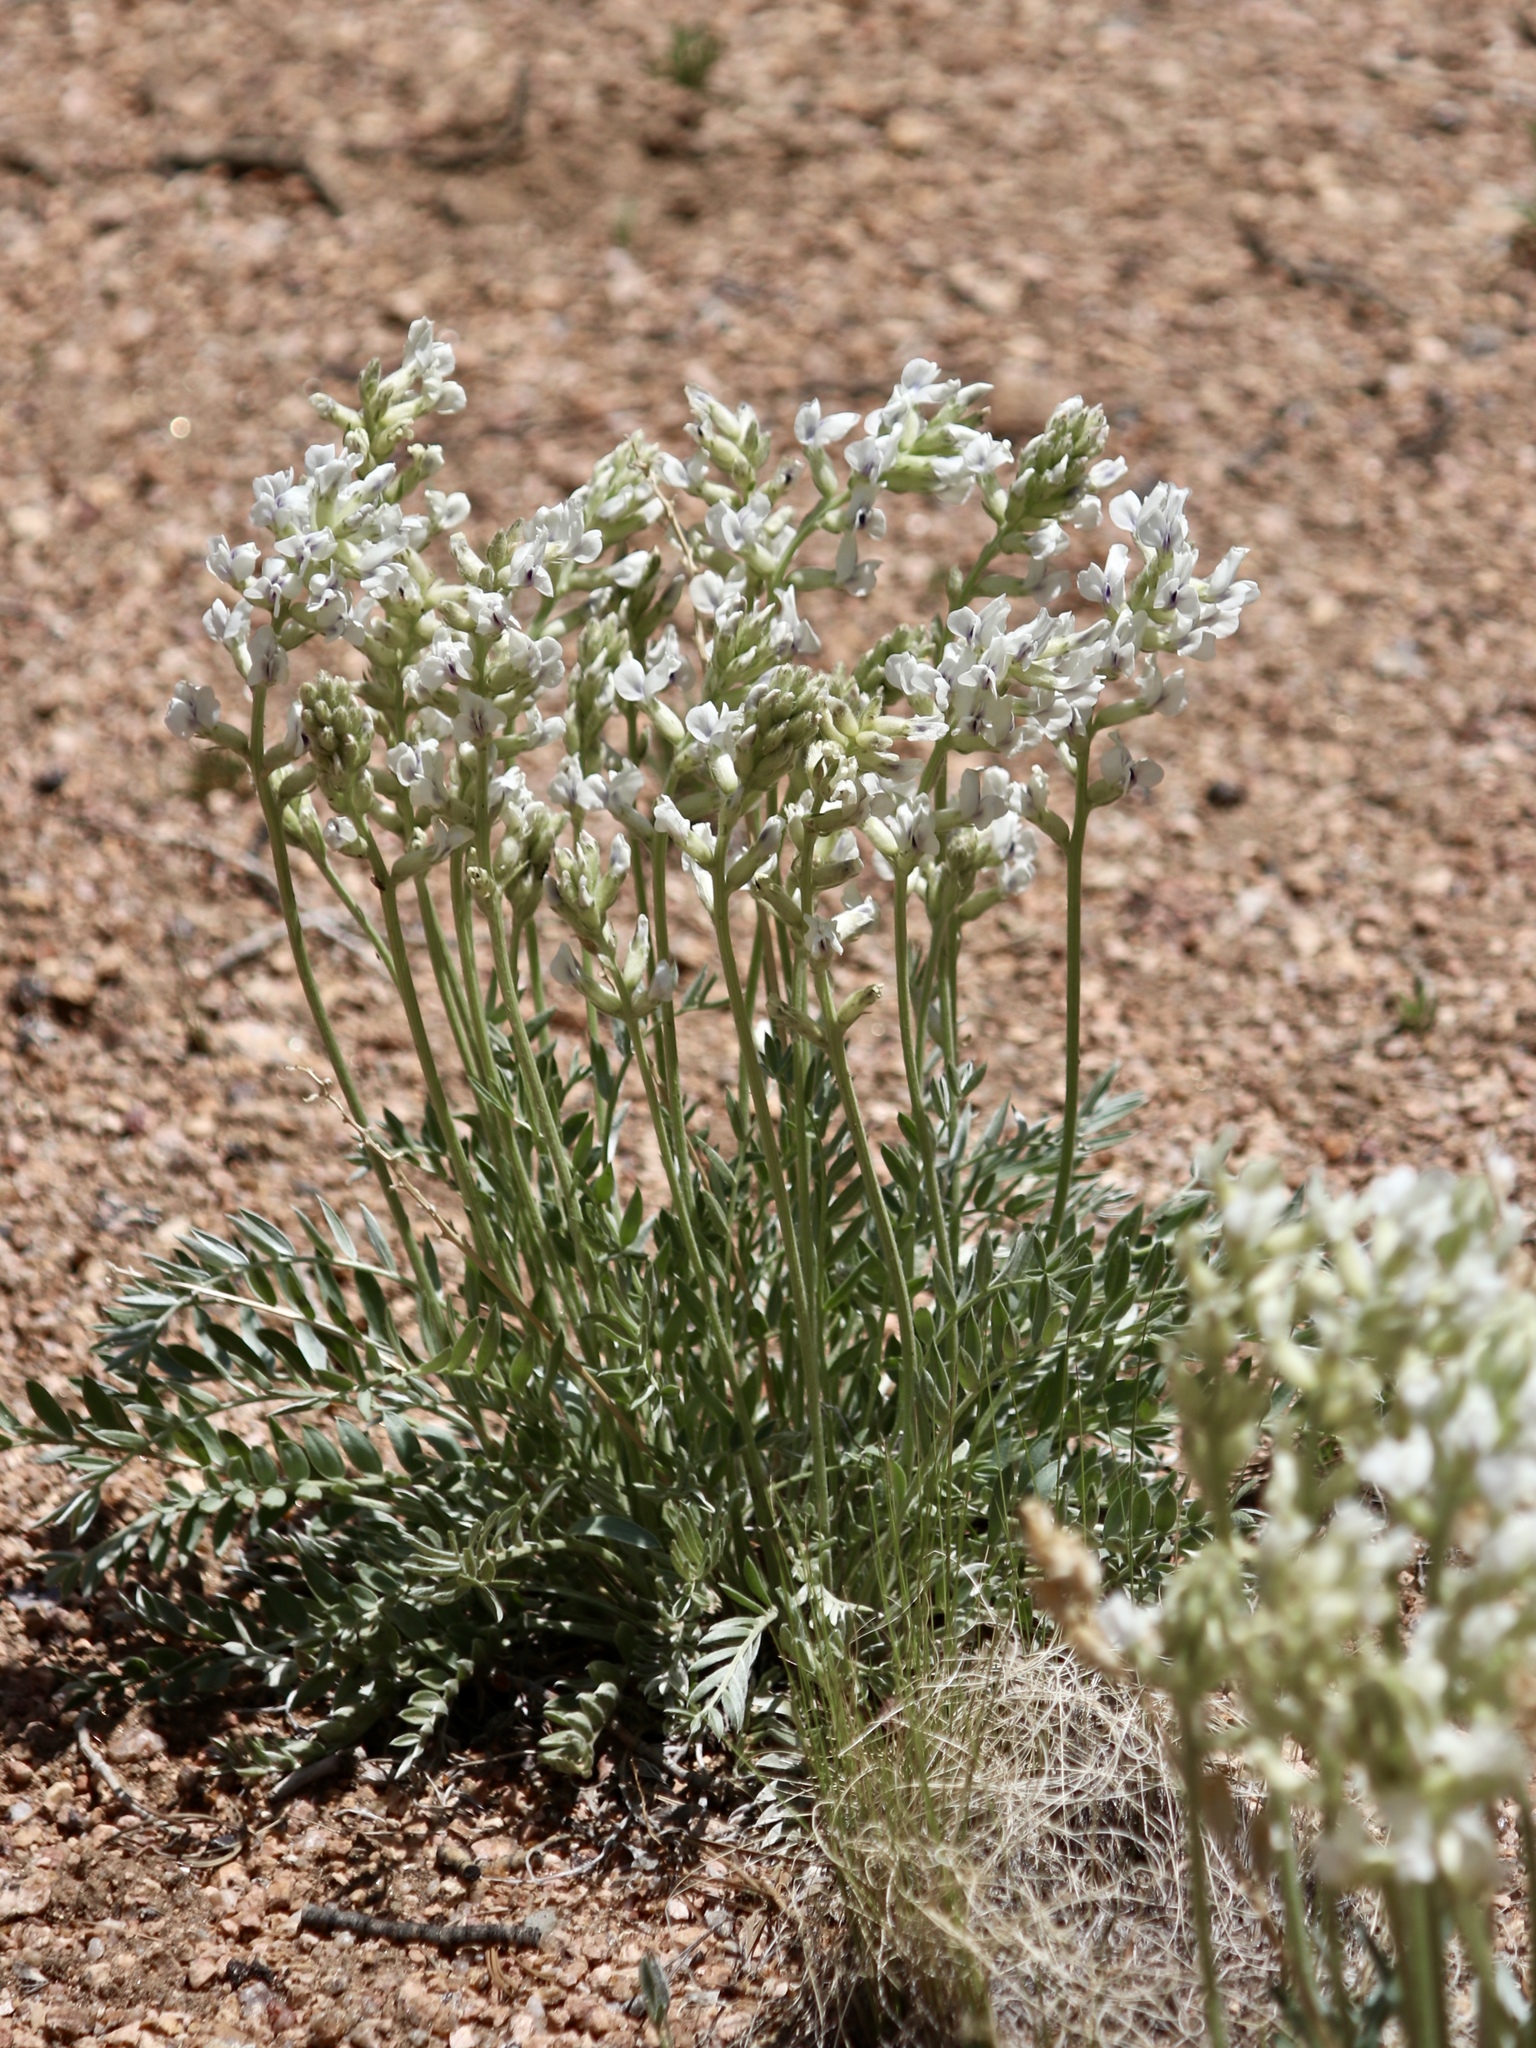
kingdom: Plantae
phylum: Tracheophyta
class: Magnoliopsida
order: Fabales
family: Fabaceae
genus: Oxytropis
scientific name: Oxytropis sericea
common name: Silky locoweed
